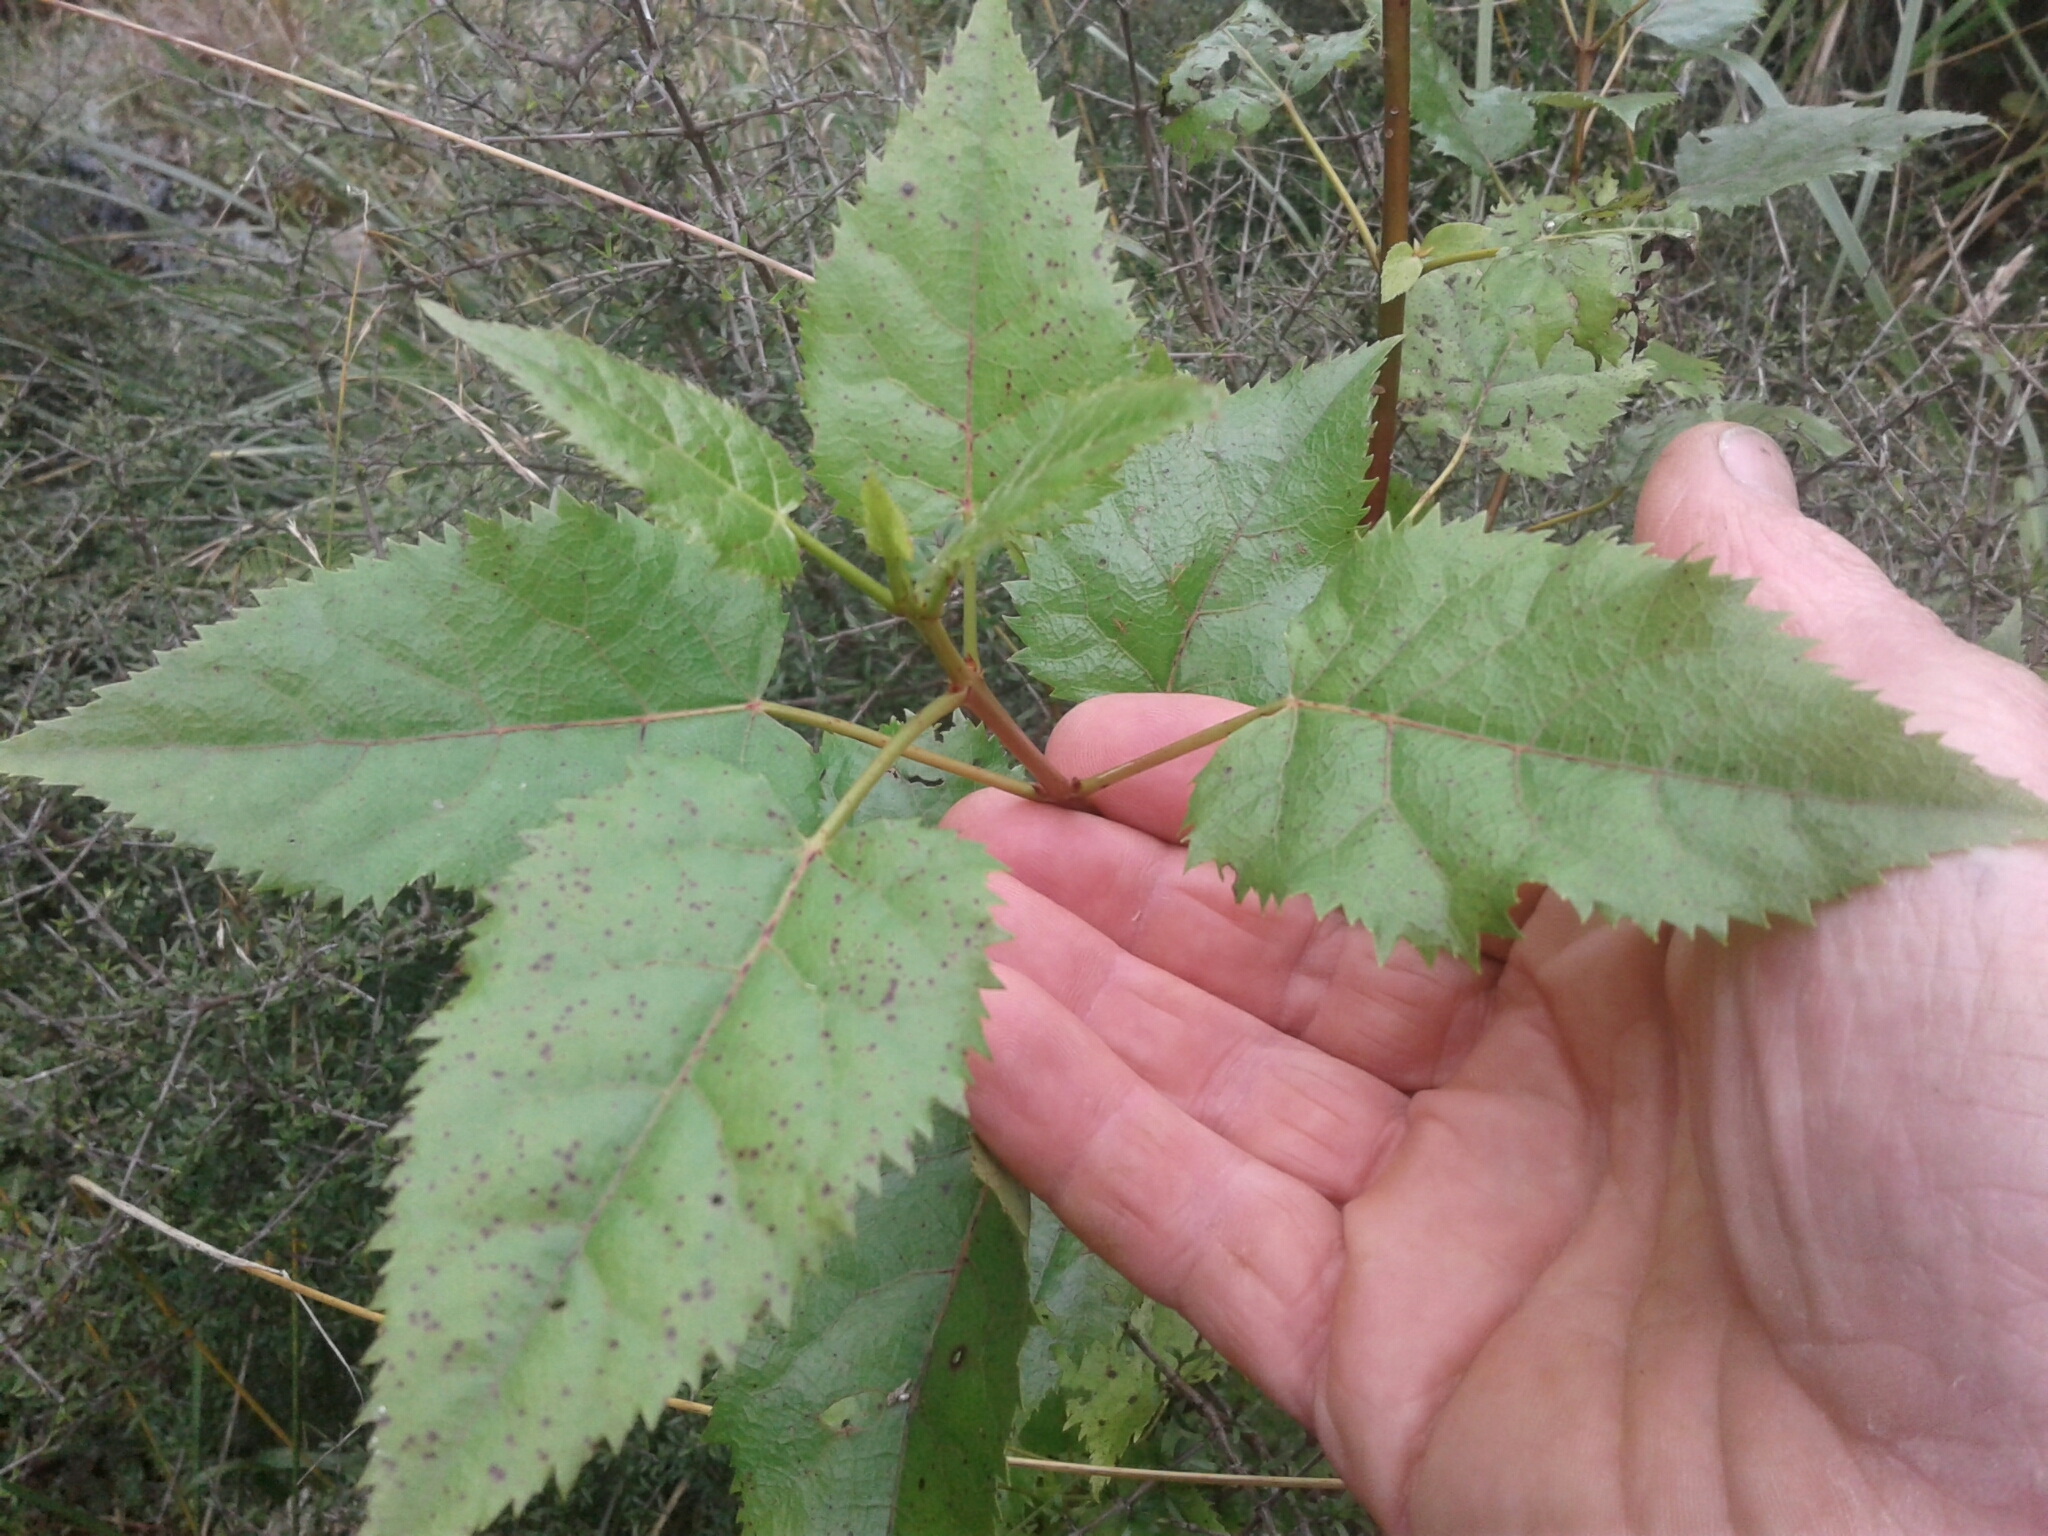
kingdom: Plantae
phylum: Tracheophyta
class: Magnoliopsida
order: Oxalidales
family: Elaeocarpaceae
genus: Aristotelia
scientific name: Aristotelia serrata
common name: New zealand wineberry
